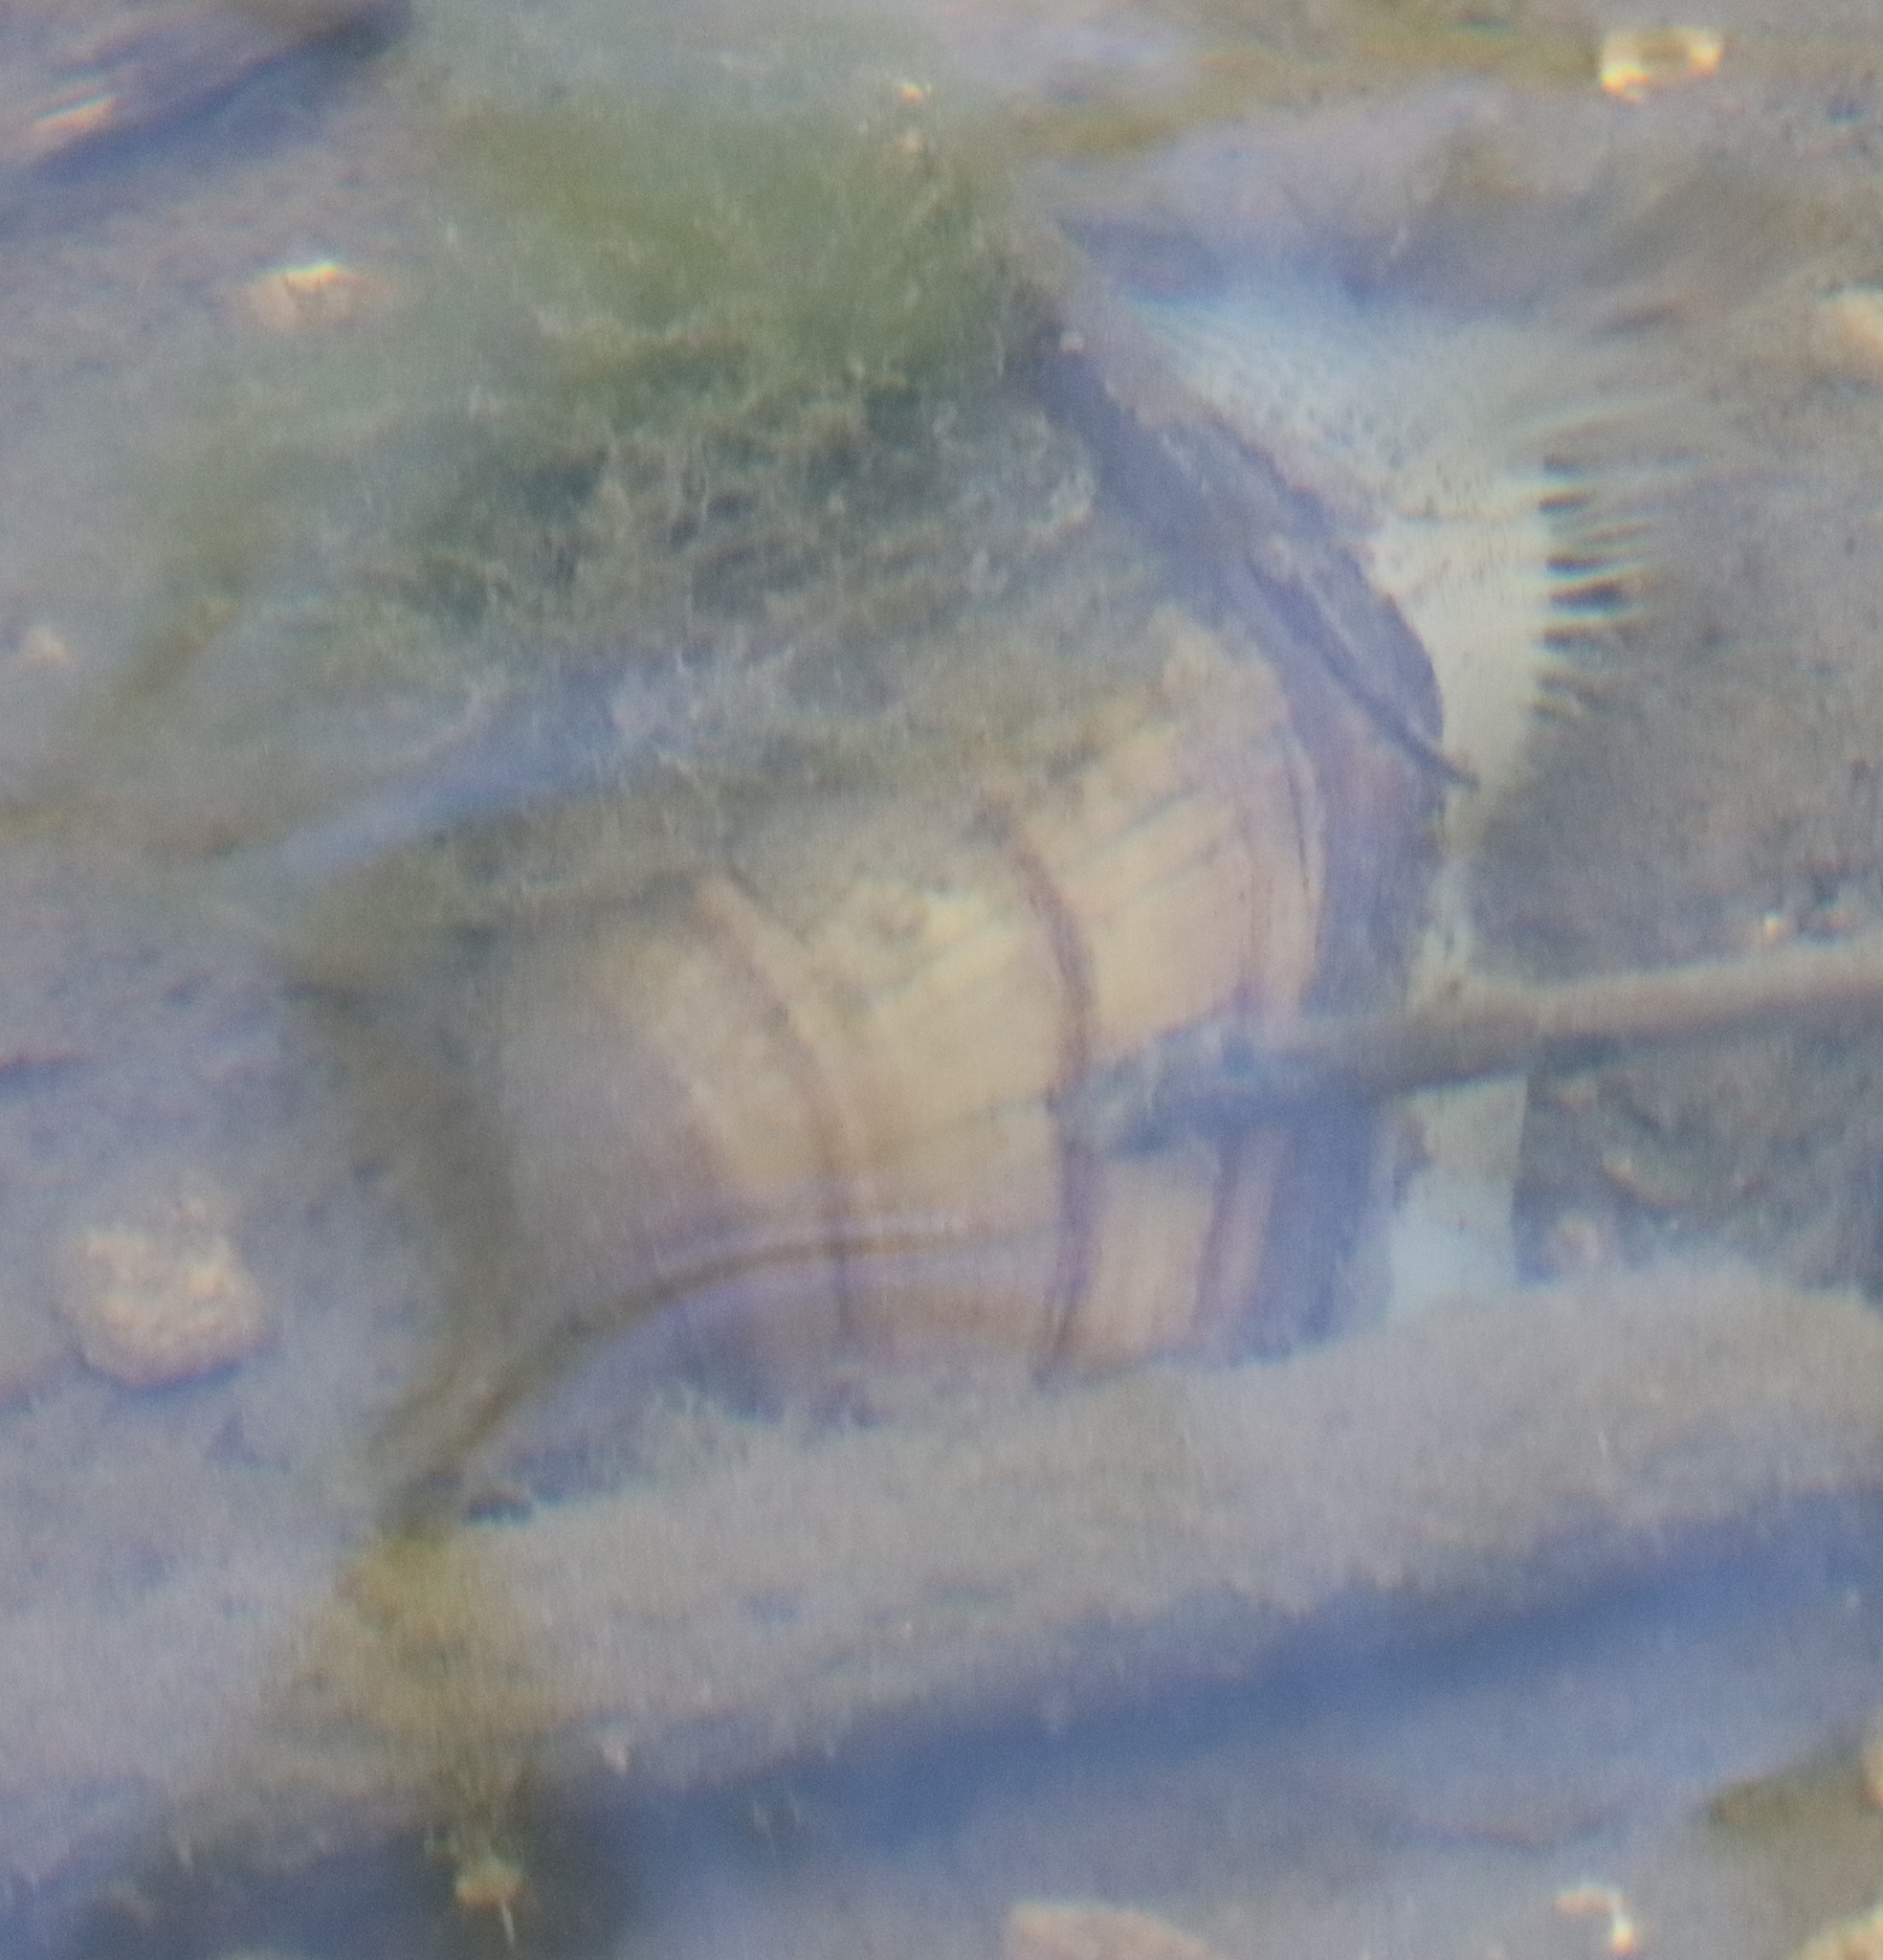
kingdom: Animalia
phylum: Mollusca
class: Bivalvia
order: Unionida
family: Unionidae
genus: Lampsilis
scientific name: Lampsilis siliquoidea
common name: Fatmucket
